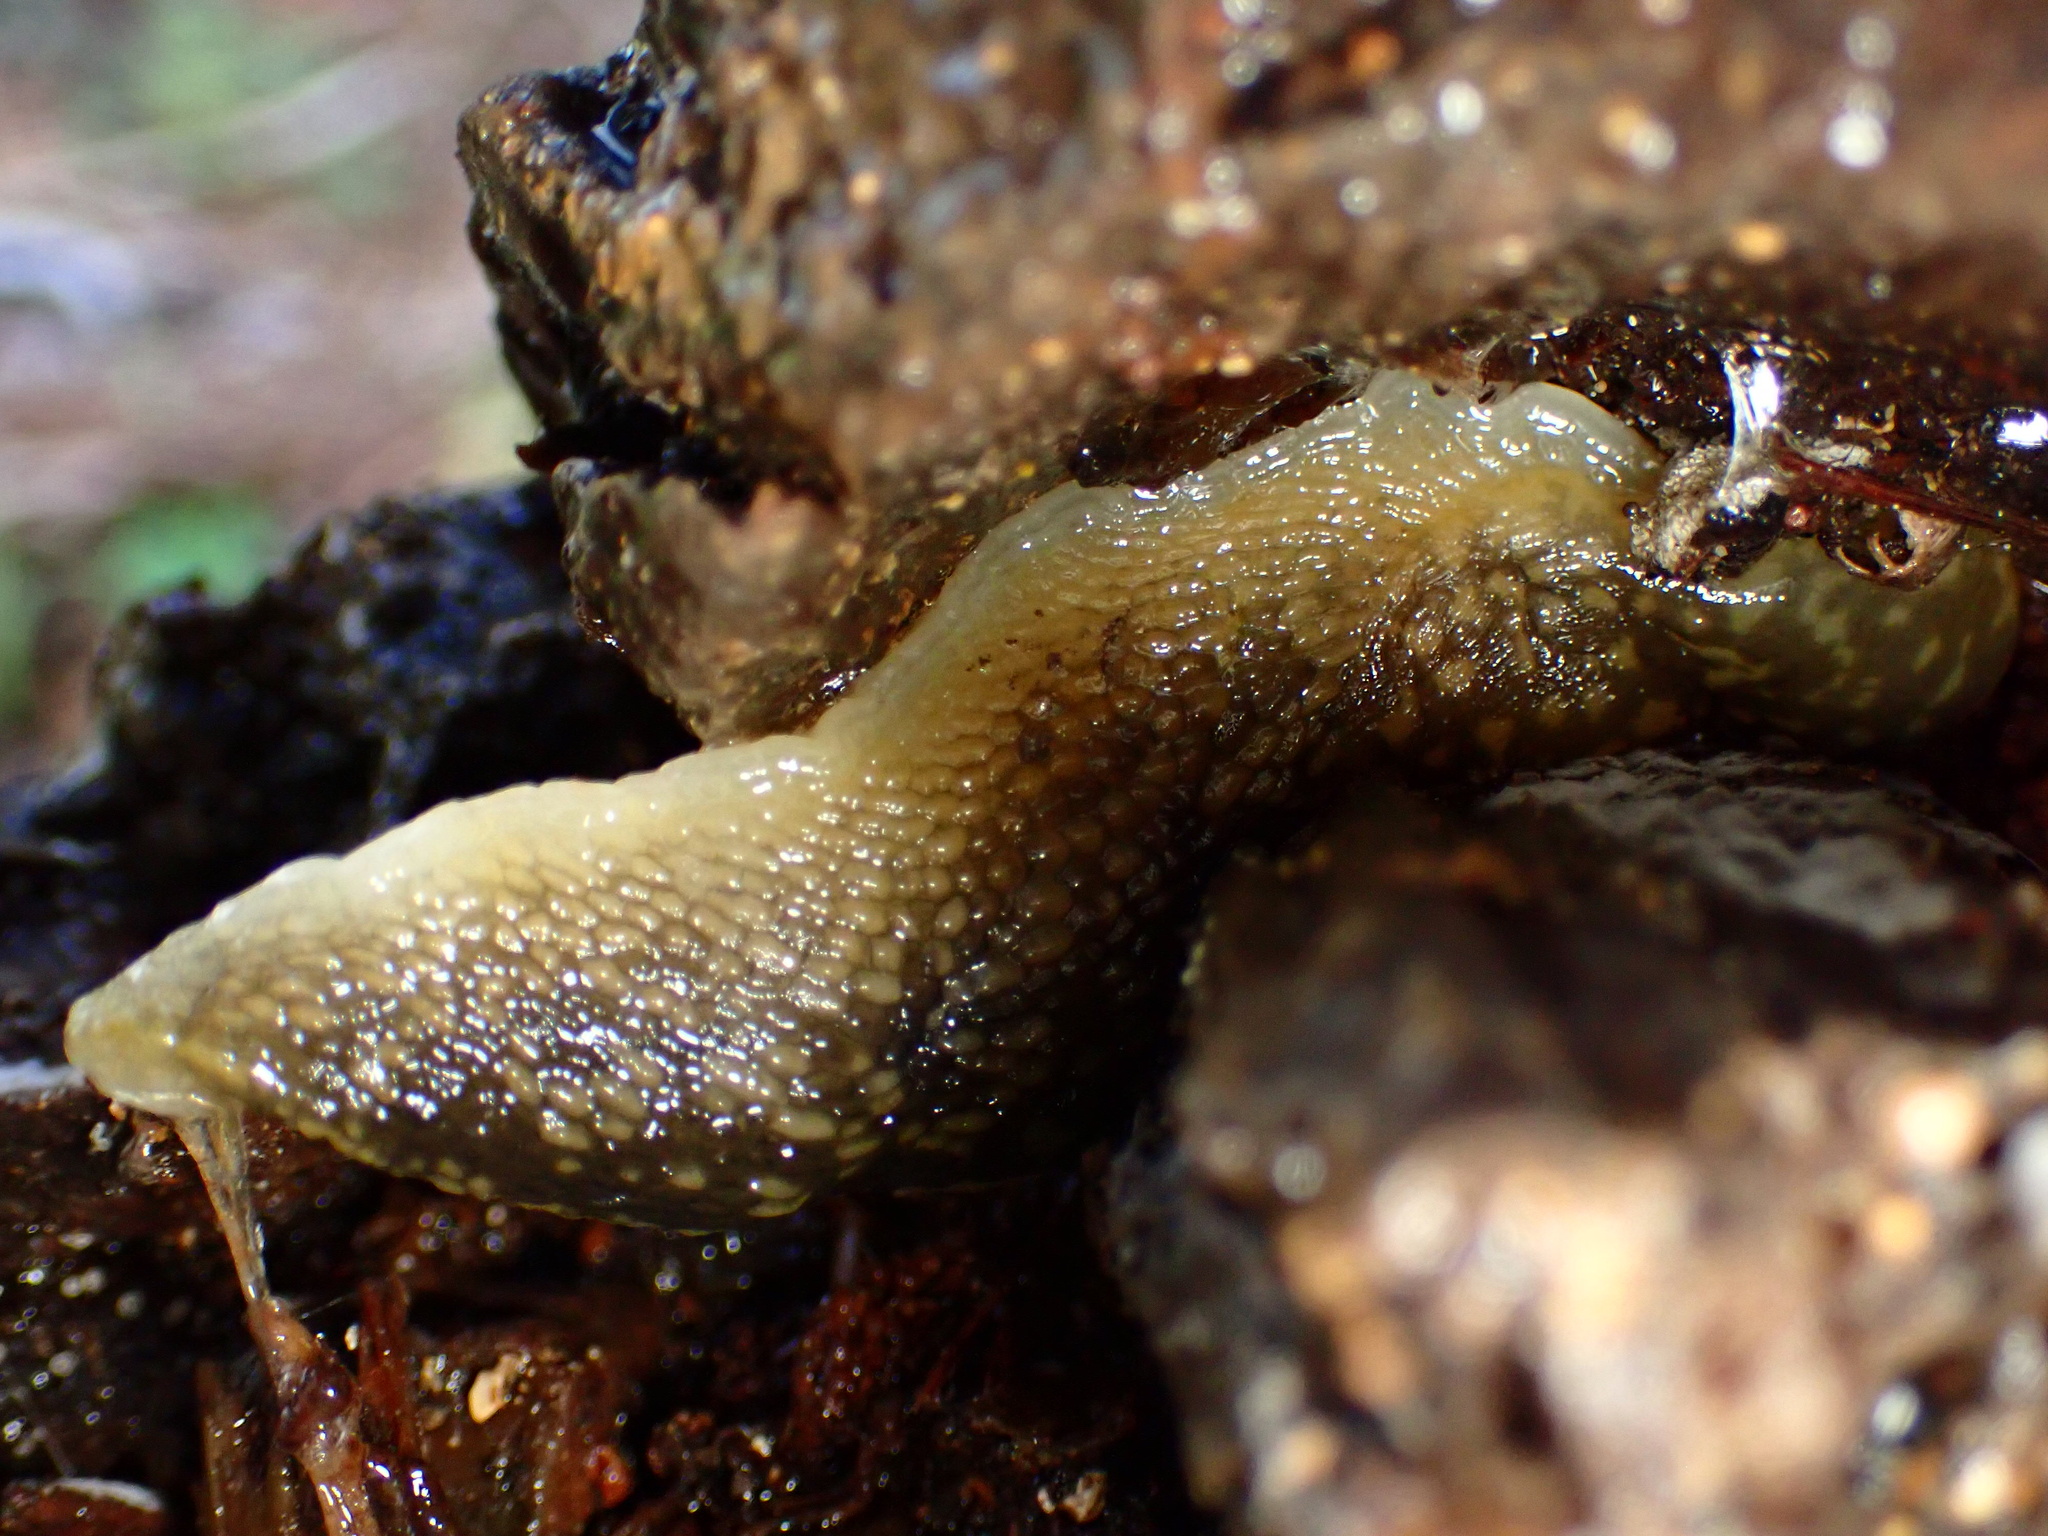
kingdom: Animalia
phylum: Mollusca
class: Gastropoda
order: Stylommatophora
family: Limacidae
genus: Limacus
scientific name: Limacus flavus
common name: Yellow gardenslug
